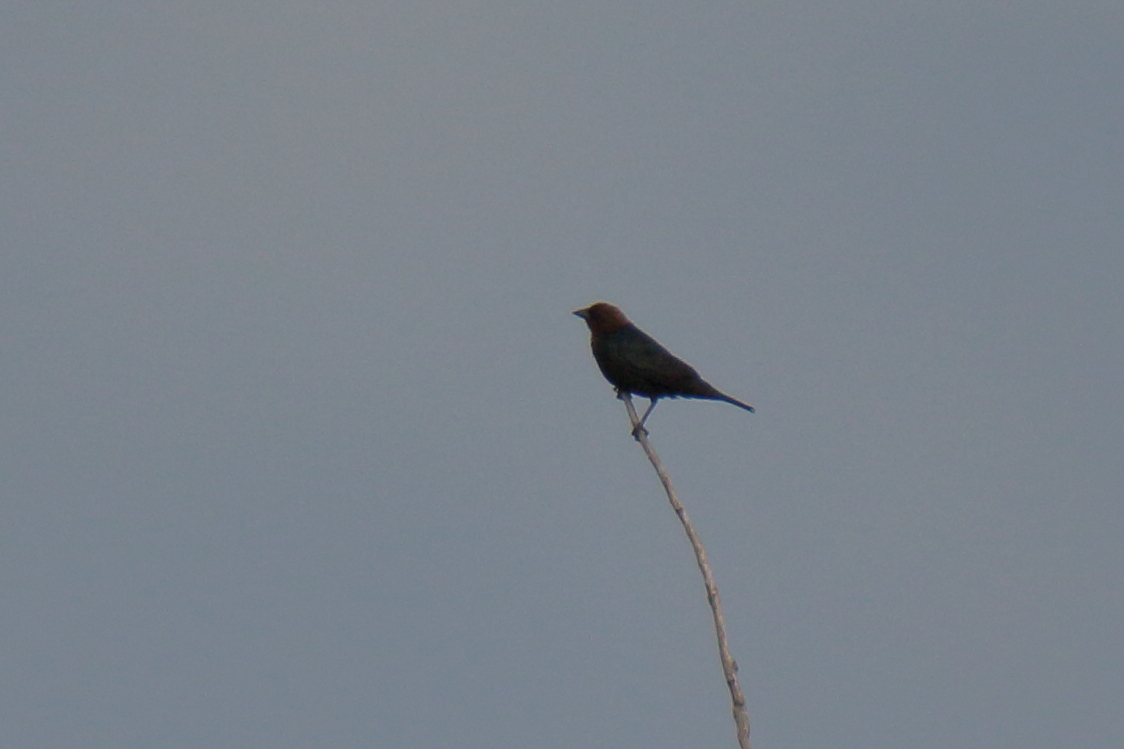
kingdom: Animalia
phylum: Chordata
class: Aves
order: Passeriformes
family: Icteridae
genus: Molothrus
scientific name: Molothrus ater
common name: Brown-headed cowbird
